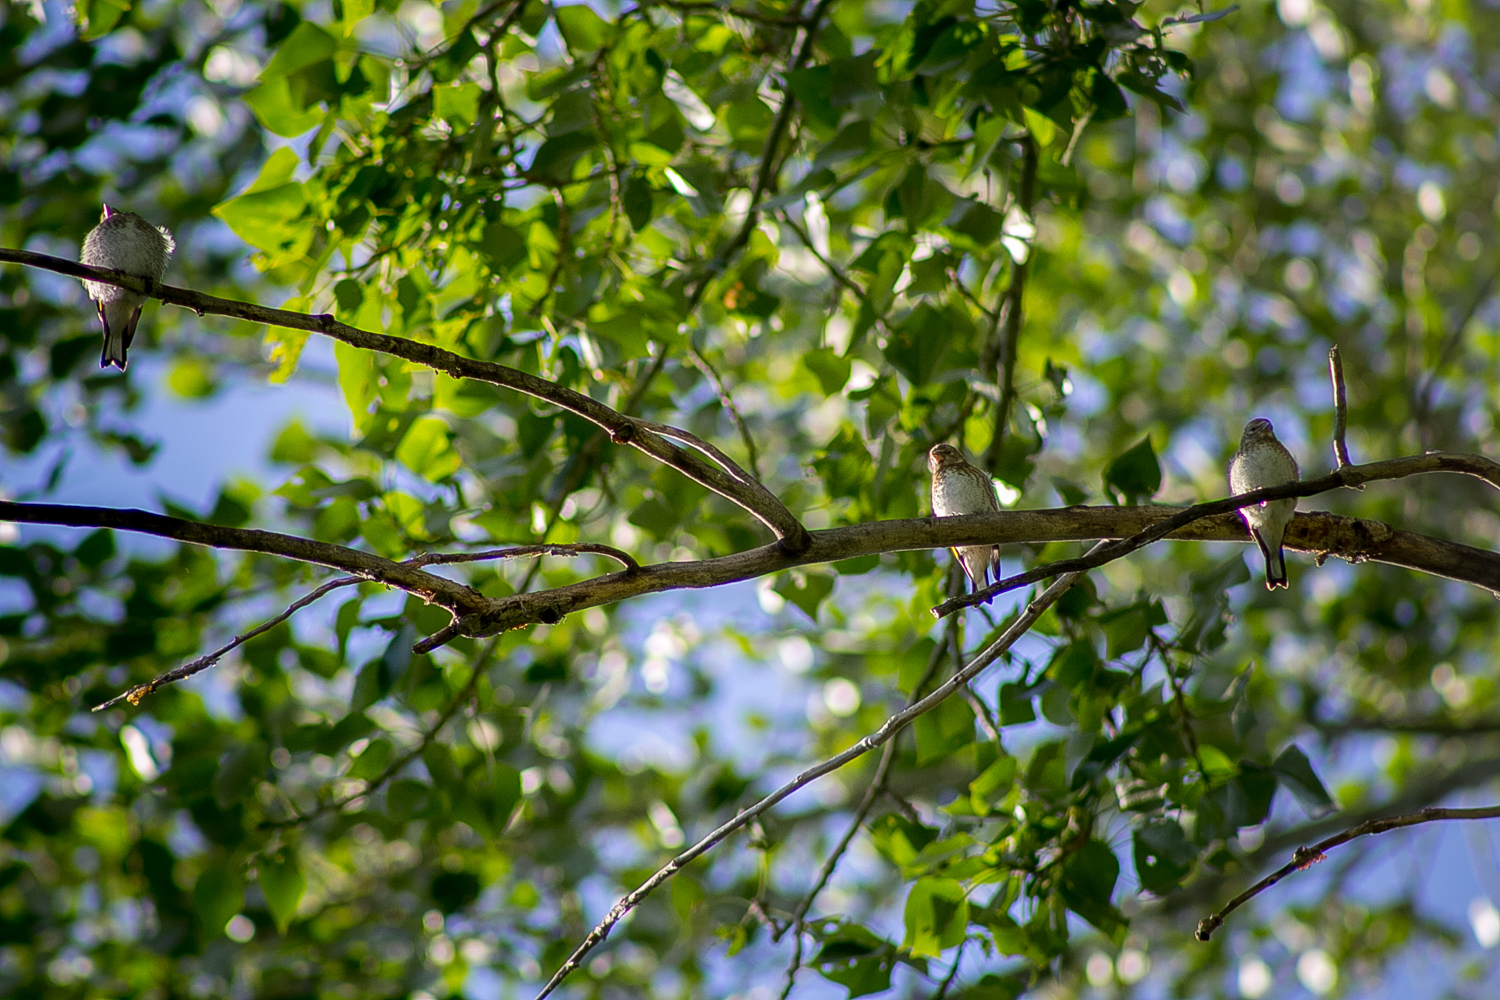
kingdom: Animalia
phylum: Chordata
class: Aves
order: Passeriformes
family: Fringillidae
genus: Carduelis
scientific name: Carduelis carduelis
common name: European goldfinch
